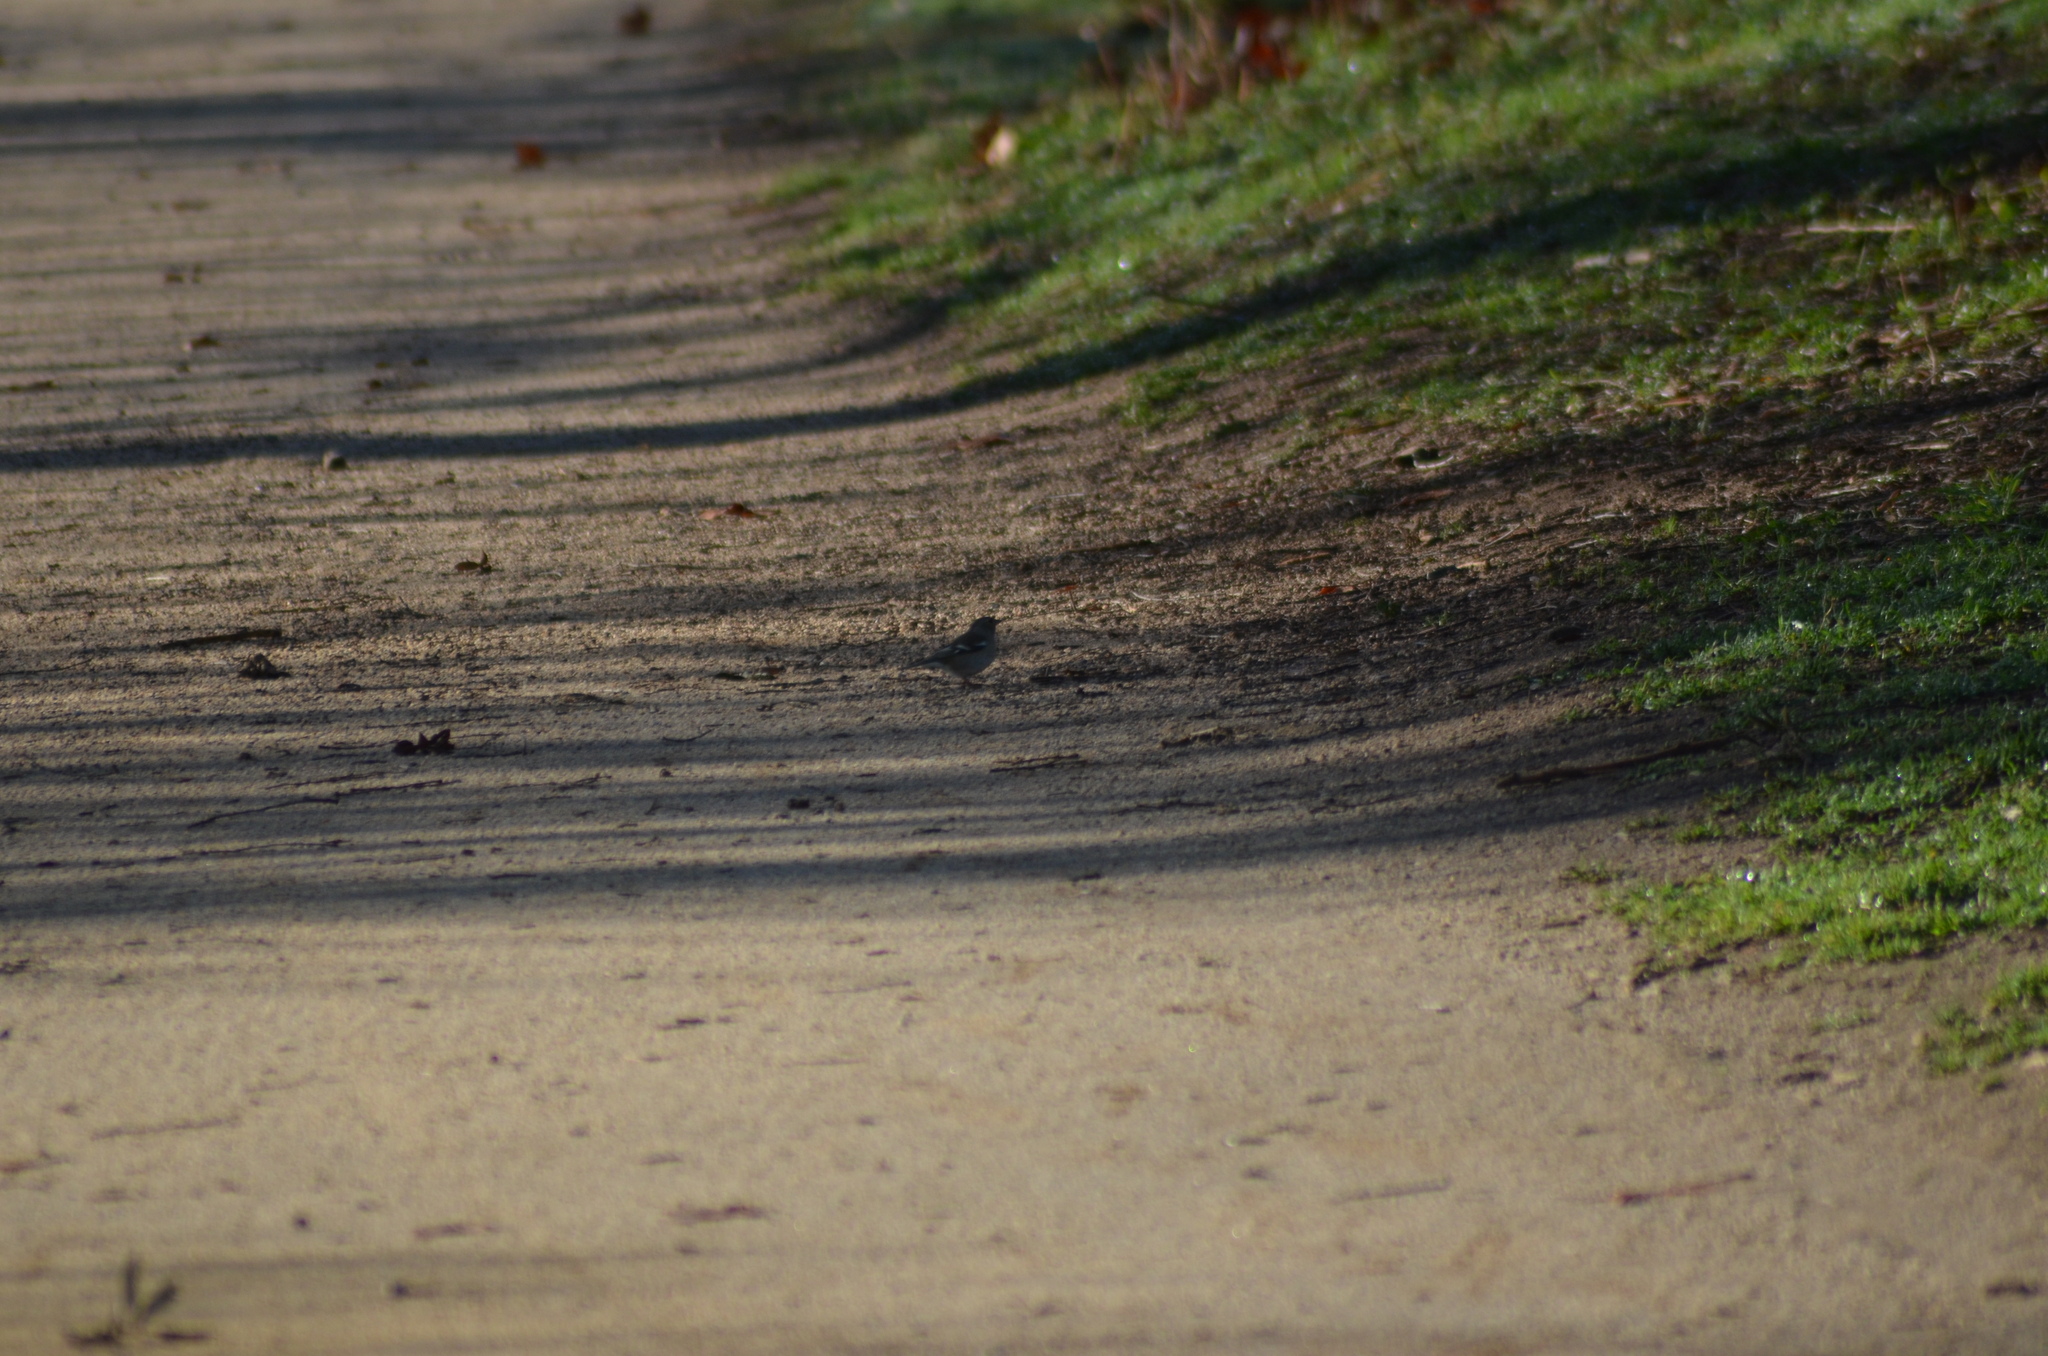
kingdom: Animalia
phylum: Chordata
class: Aves
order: Passeriformes
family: Fringillidae
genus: Fringilla
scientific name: Fringilla coelebs
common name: Common chaffinch
